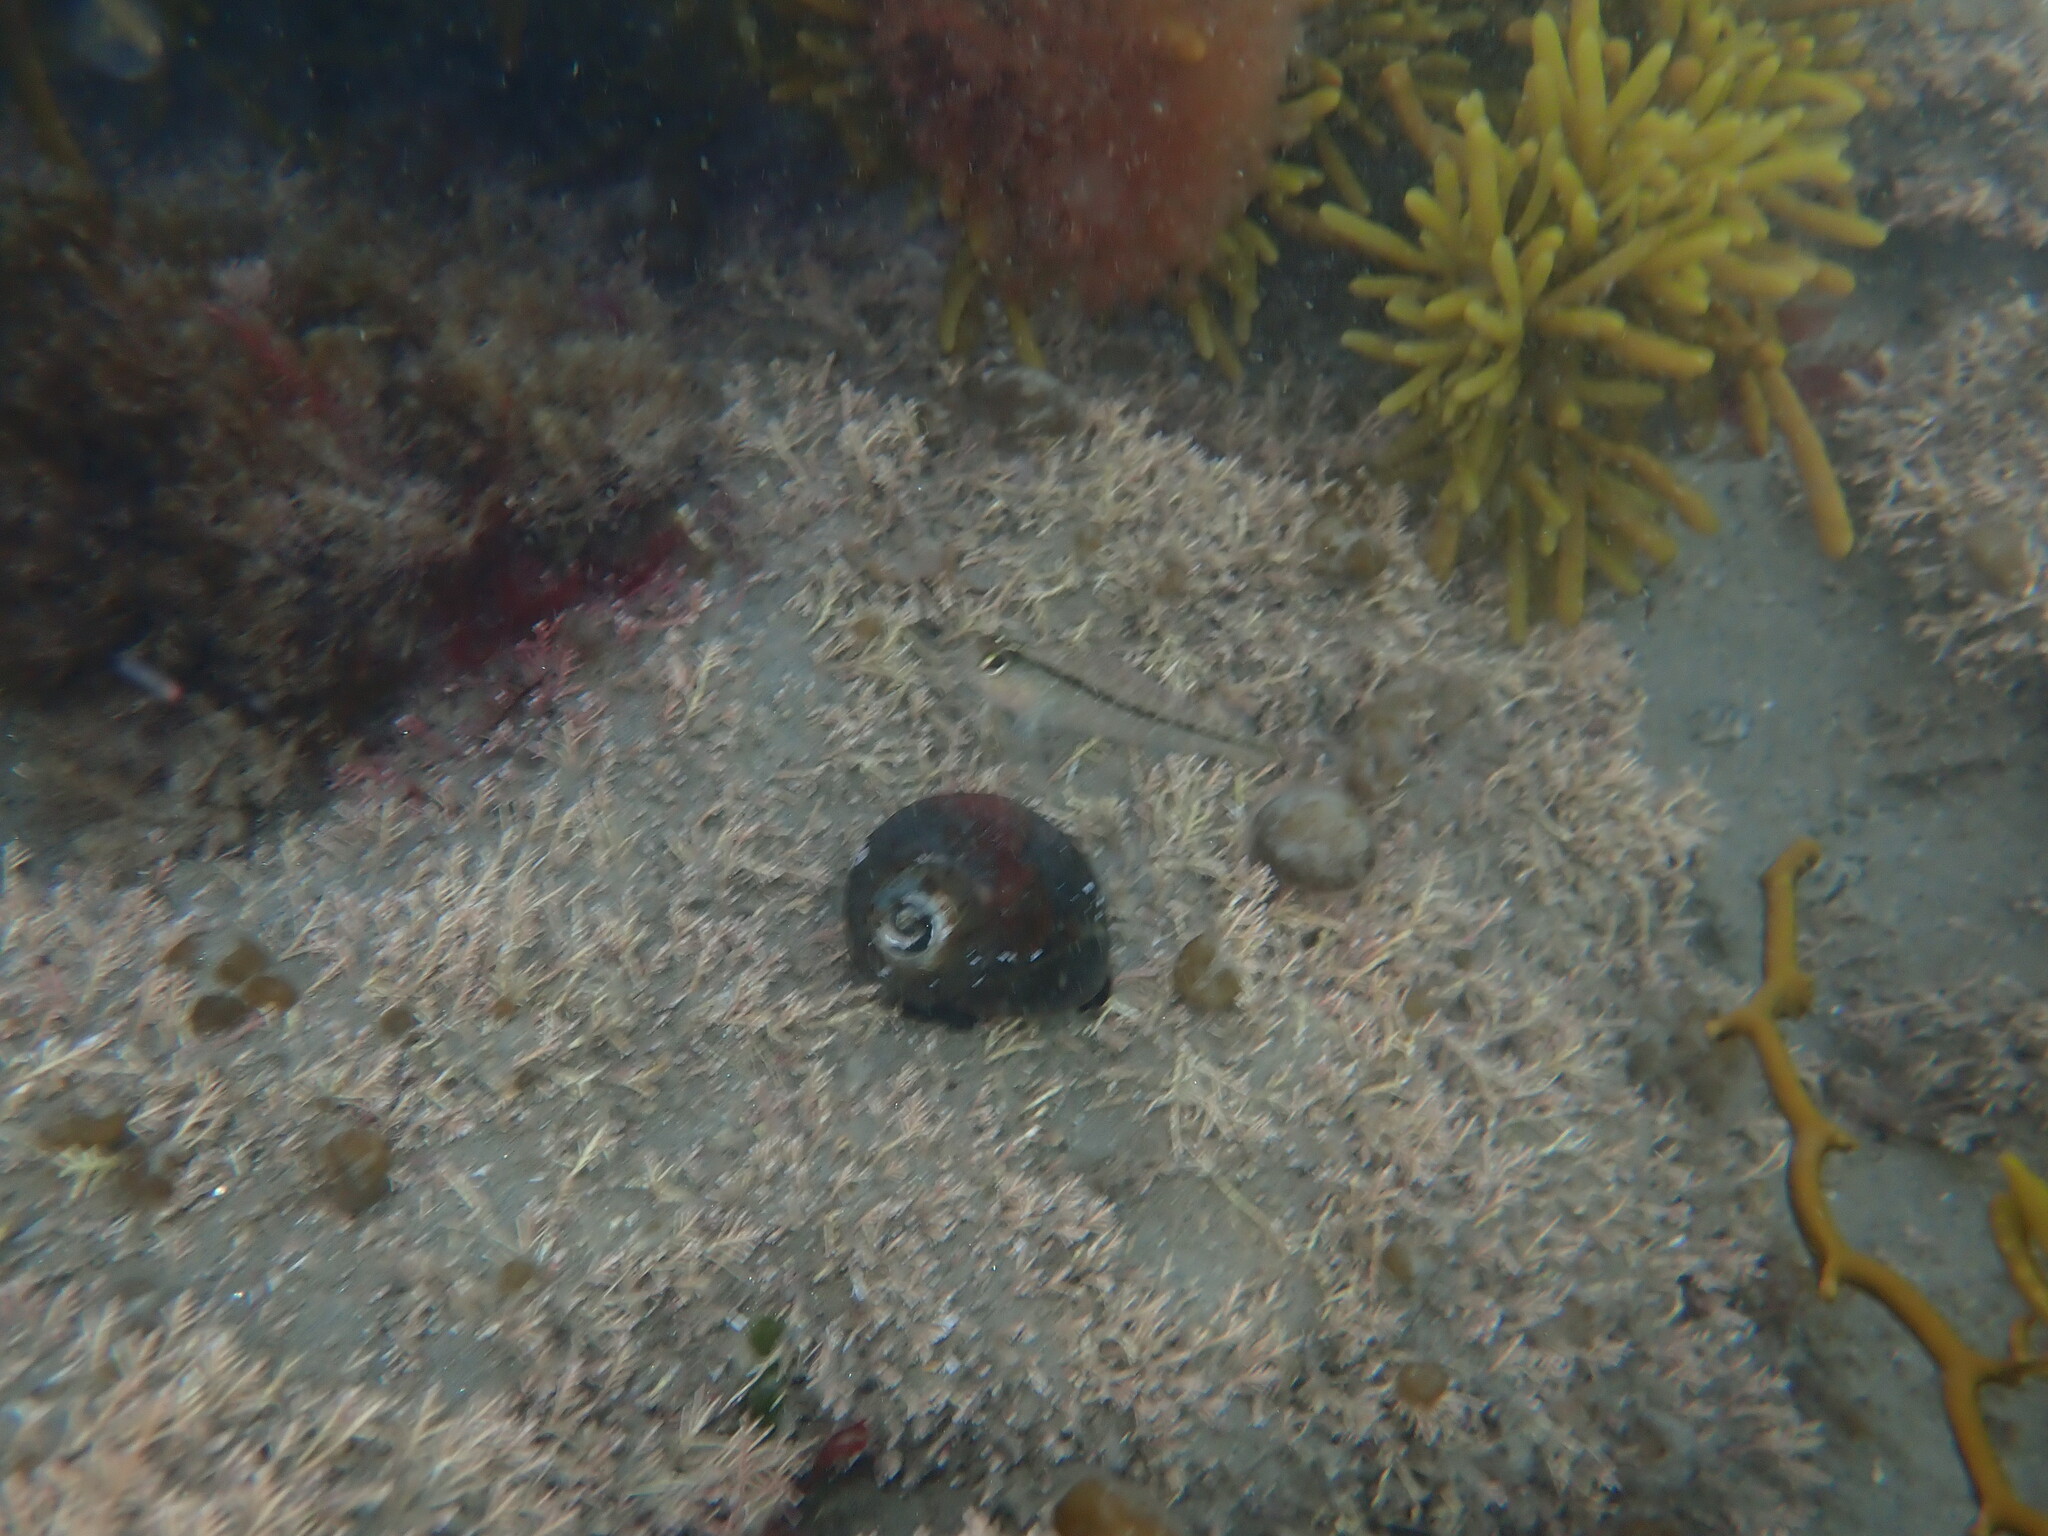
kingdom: Animalia
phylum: Mollusca
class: Gastropoda
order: Trochida
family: Turbinidae
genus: Lunella
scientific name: Lunella smaragda
